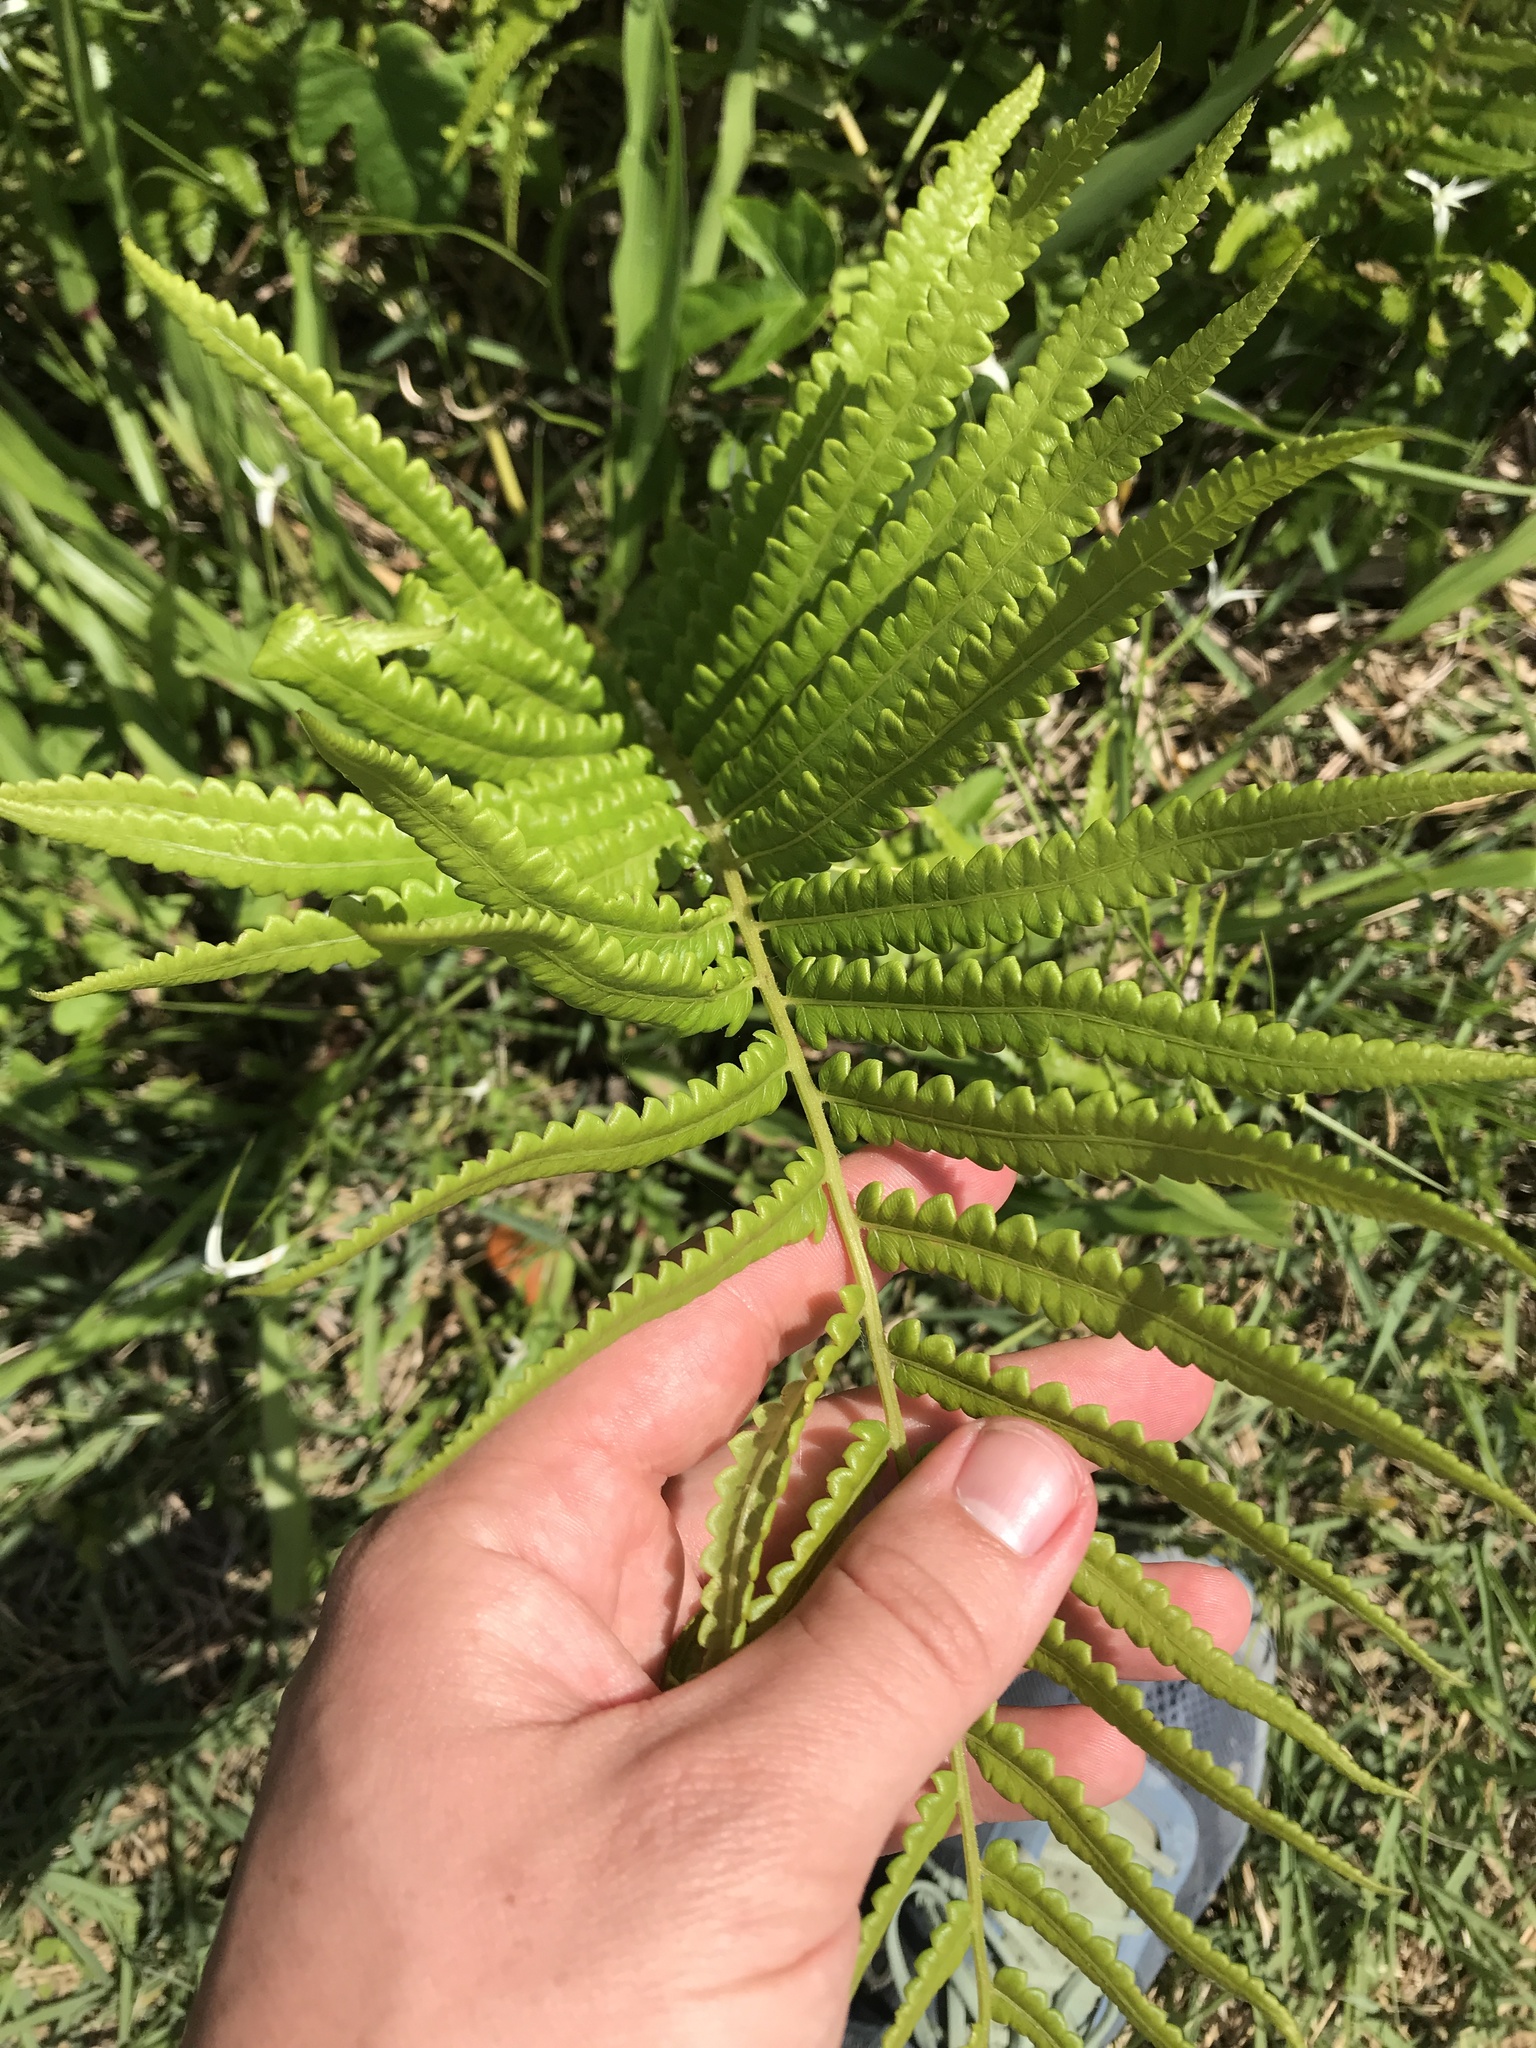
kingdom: Plantae
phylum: Tracheophyta
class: Polypodiopsida
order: Polypodiales
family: Thelypteridaceae
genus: Cyclosorus
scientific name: Cyclosorus interruptus
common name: Neke fern
